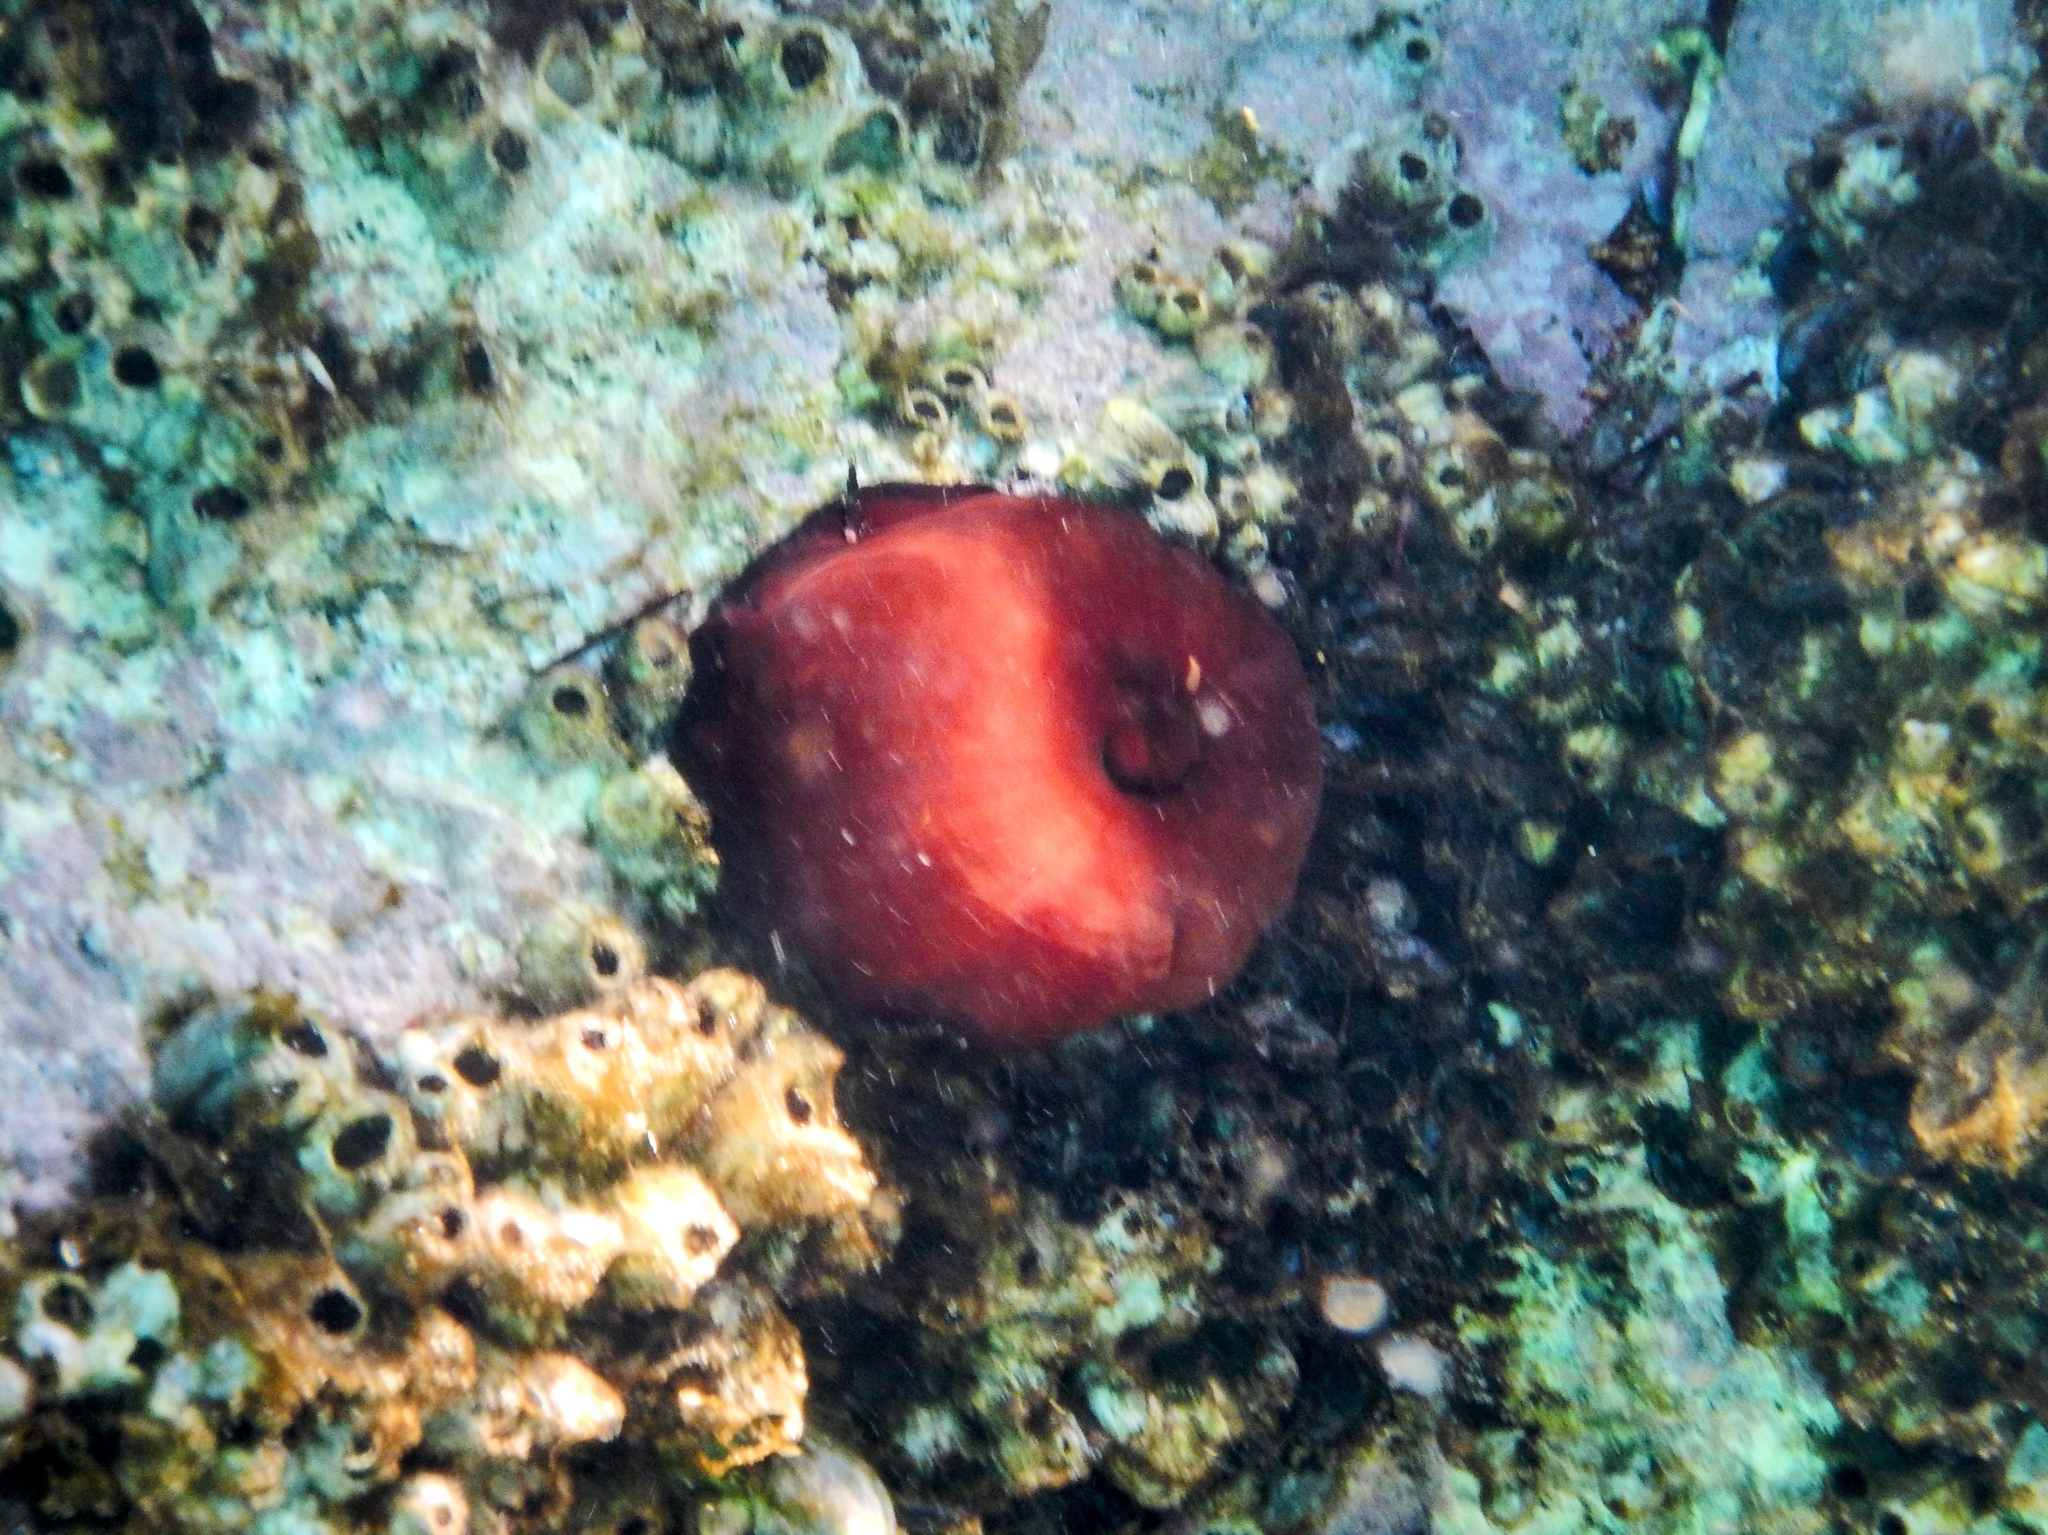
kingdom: Animalia
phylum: Cnidaria
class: Anthozoa
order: Actiniaria
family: Actiniidae
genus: Actinia
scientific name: Actinia mediterranea
